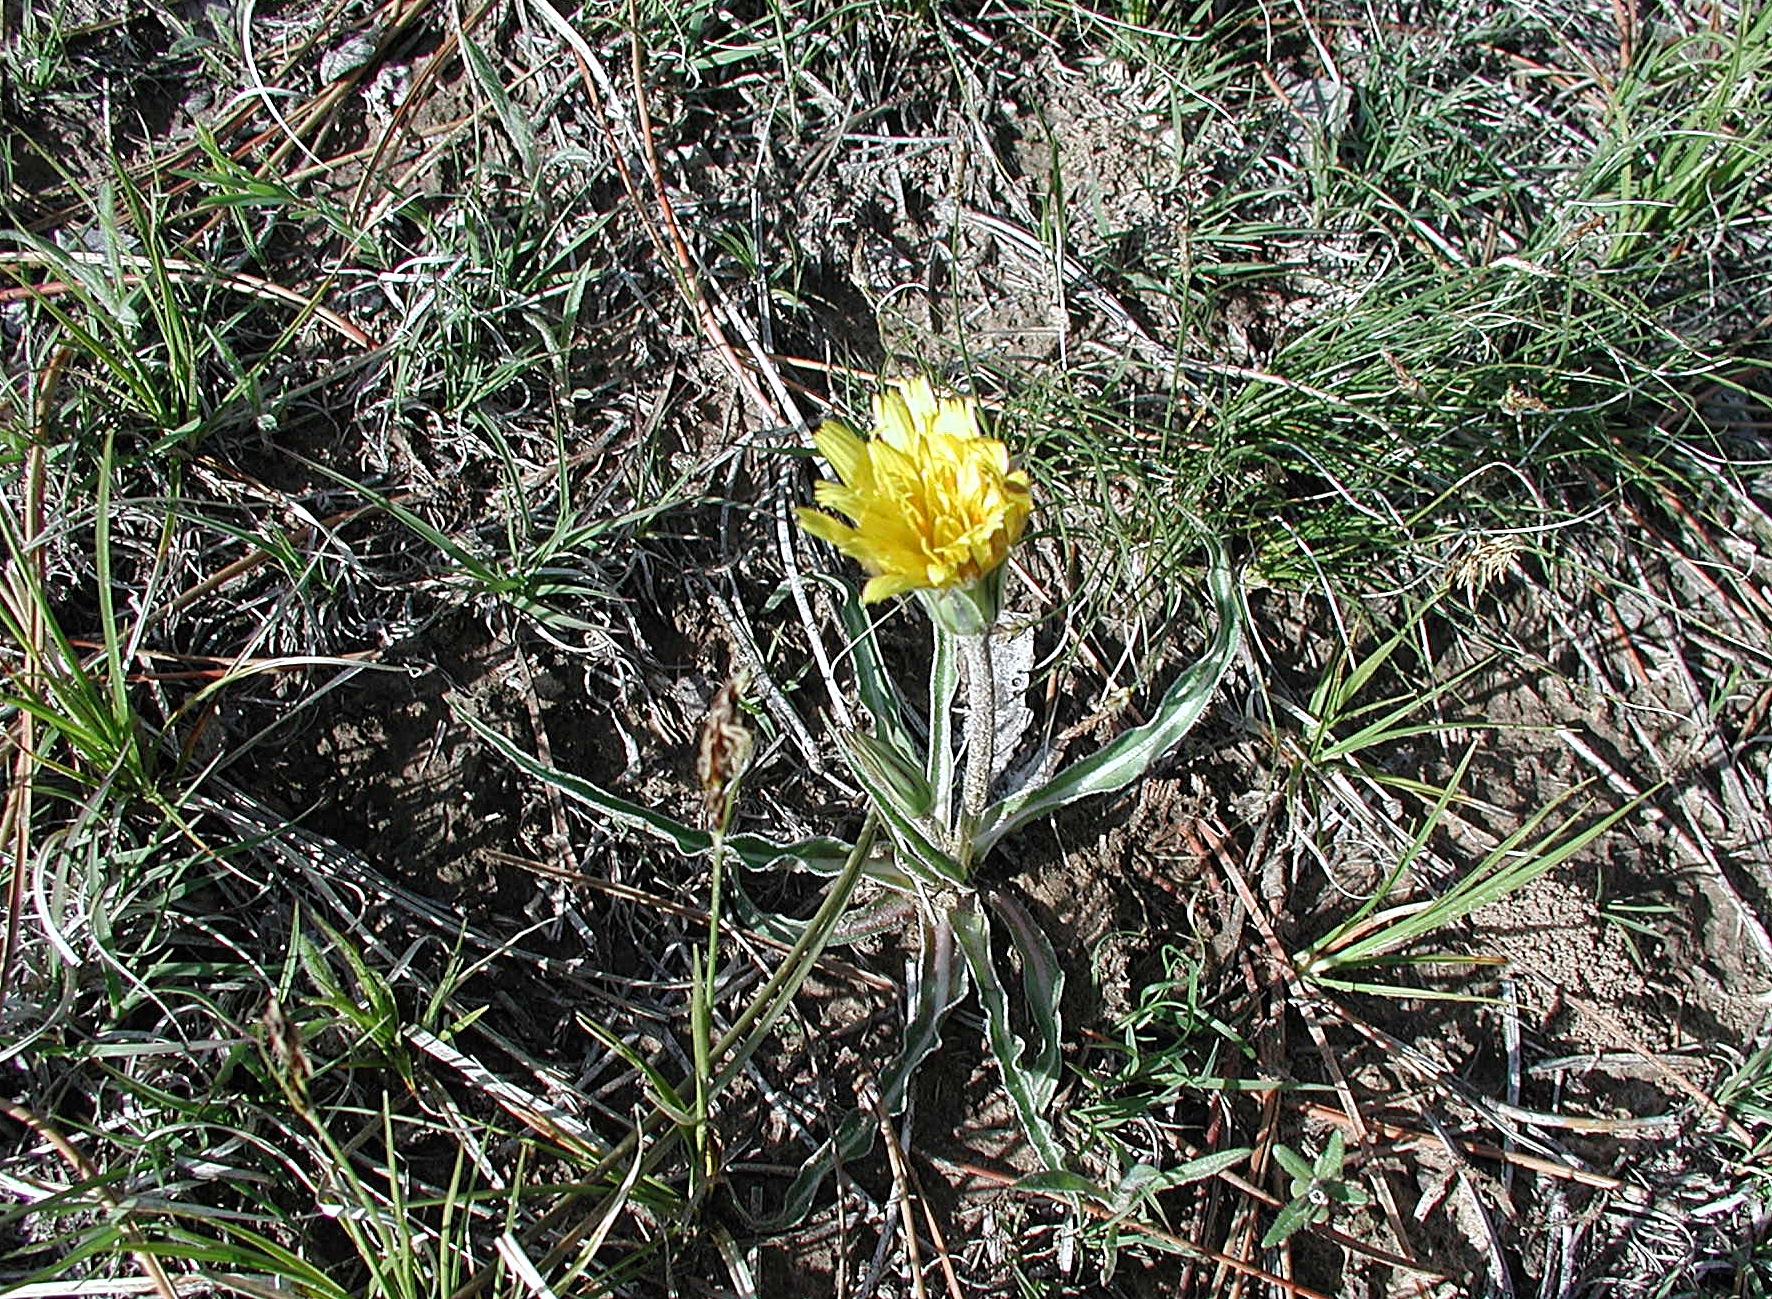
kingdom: Plantae
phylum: Tracheophyta
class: Magnoliopsida
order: Asterales
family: Asteraceae
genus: Microseris
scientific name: Microseris cuspidata
